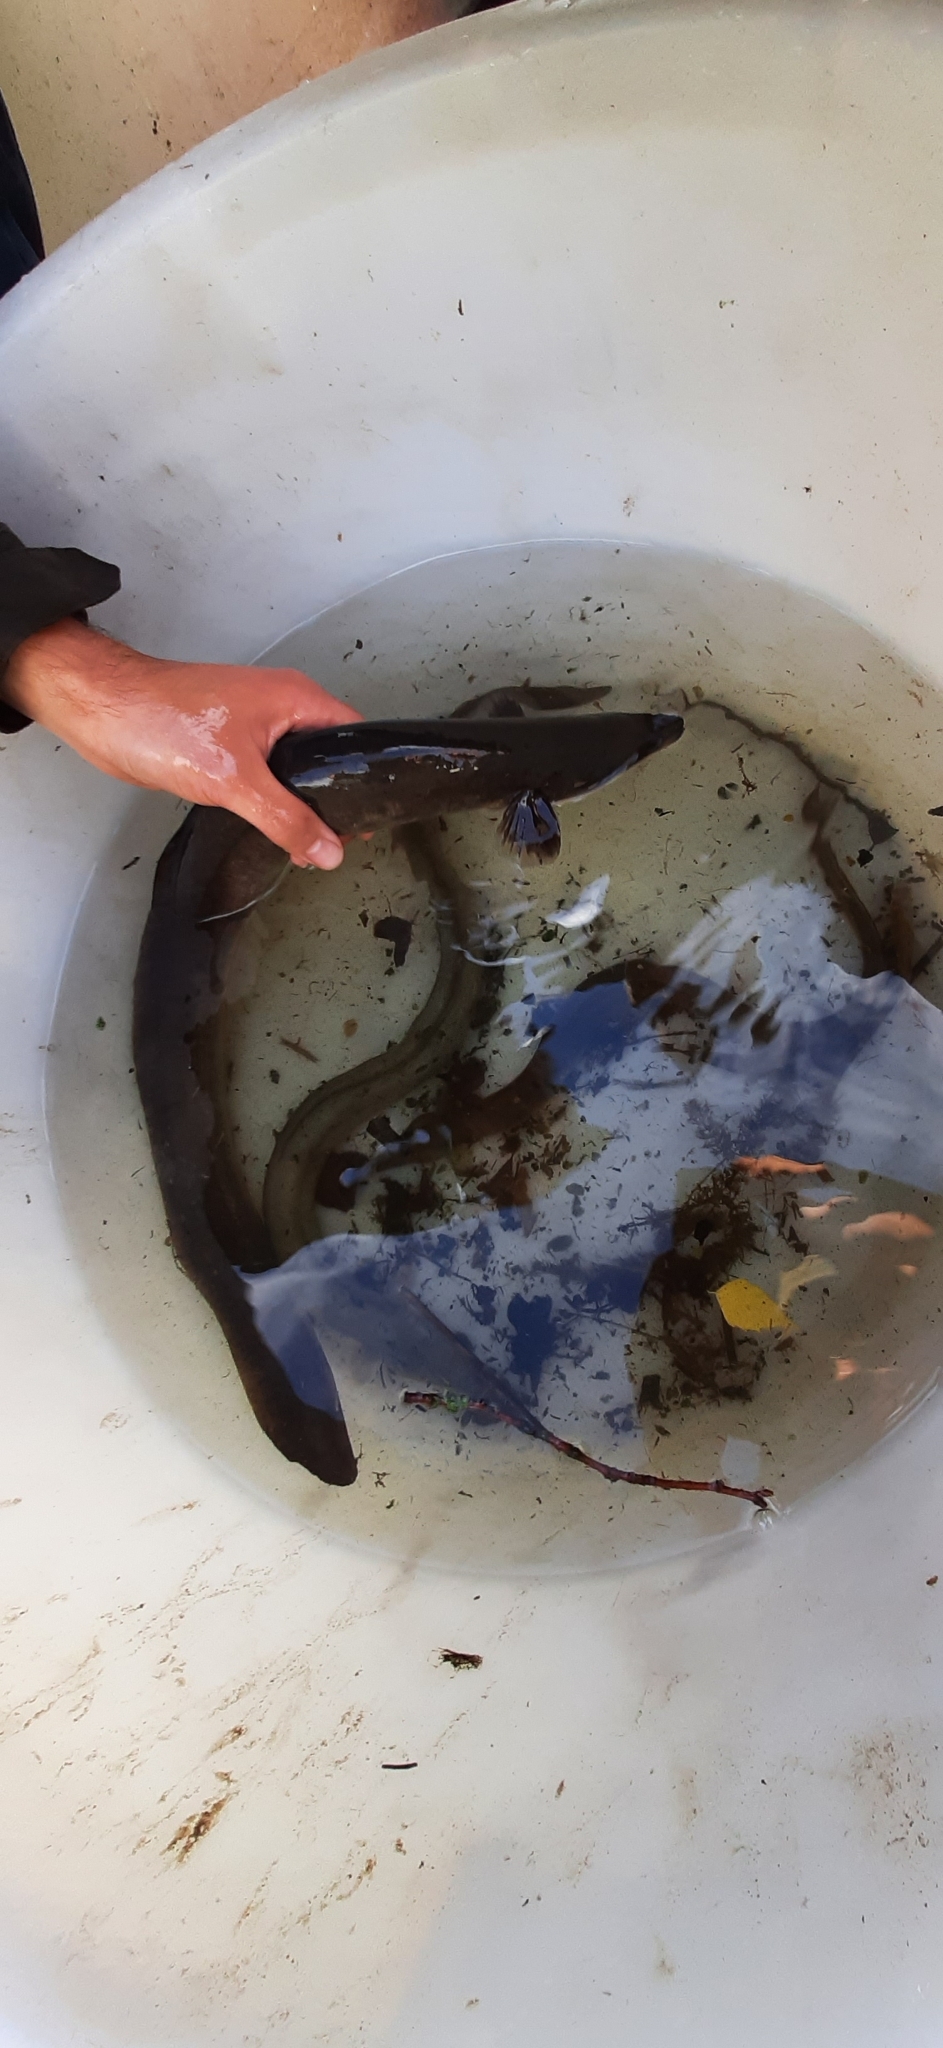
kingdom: Animalia
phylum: Chordata
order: Anguilliformes
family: Anguillidae
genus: Anguilla
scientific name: Anguilla anguilla
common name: European eel
